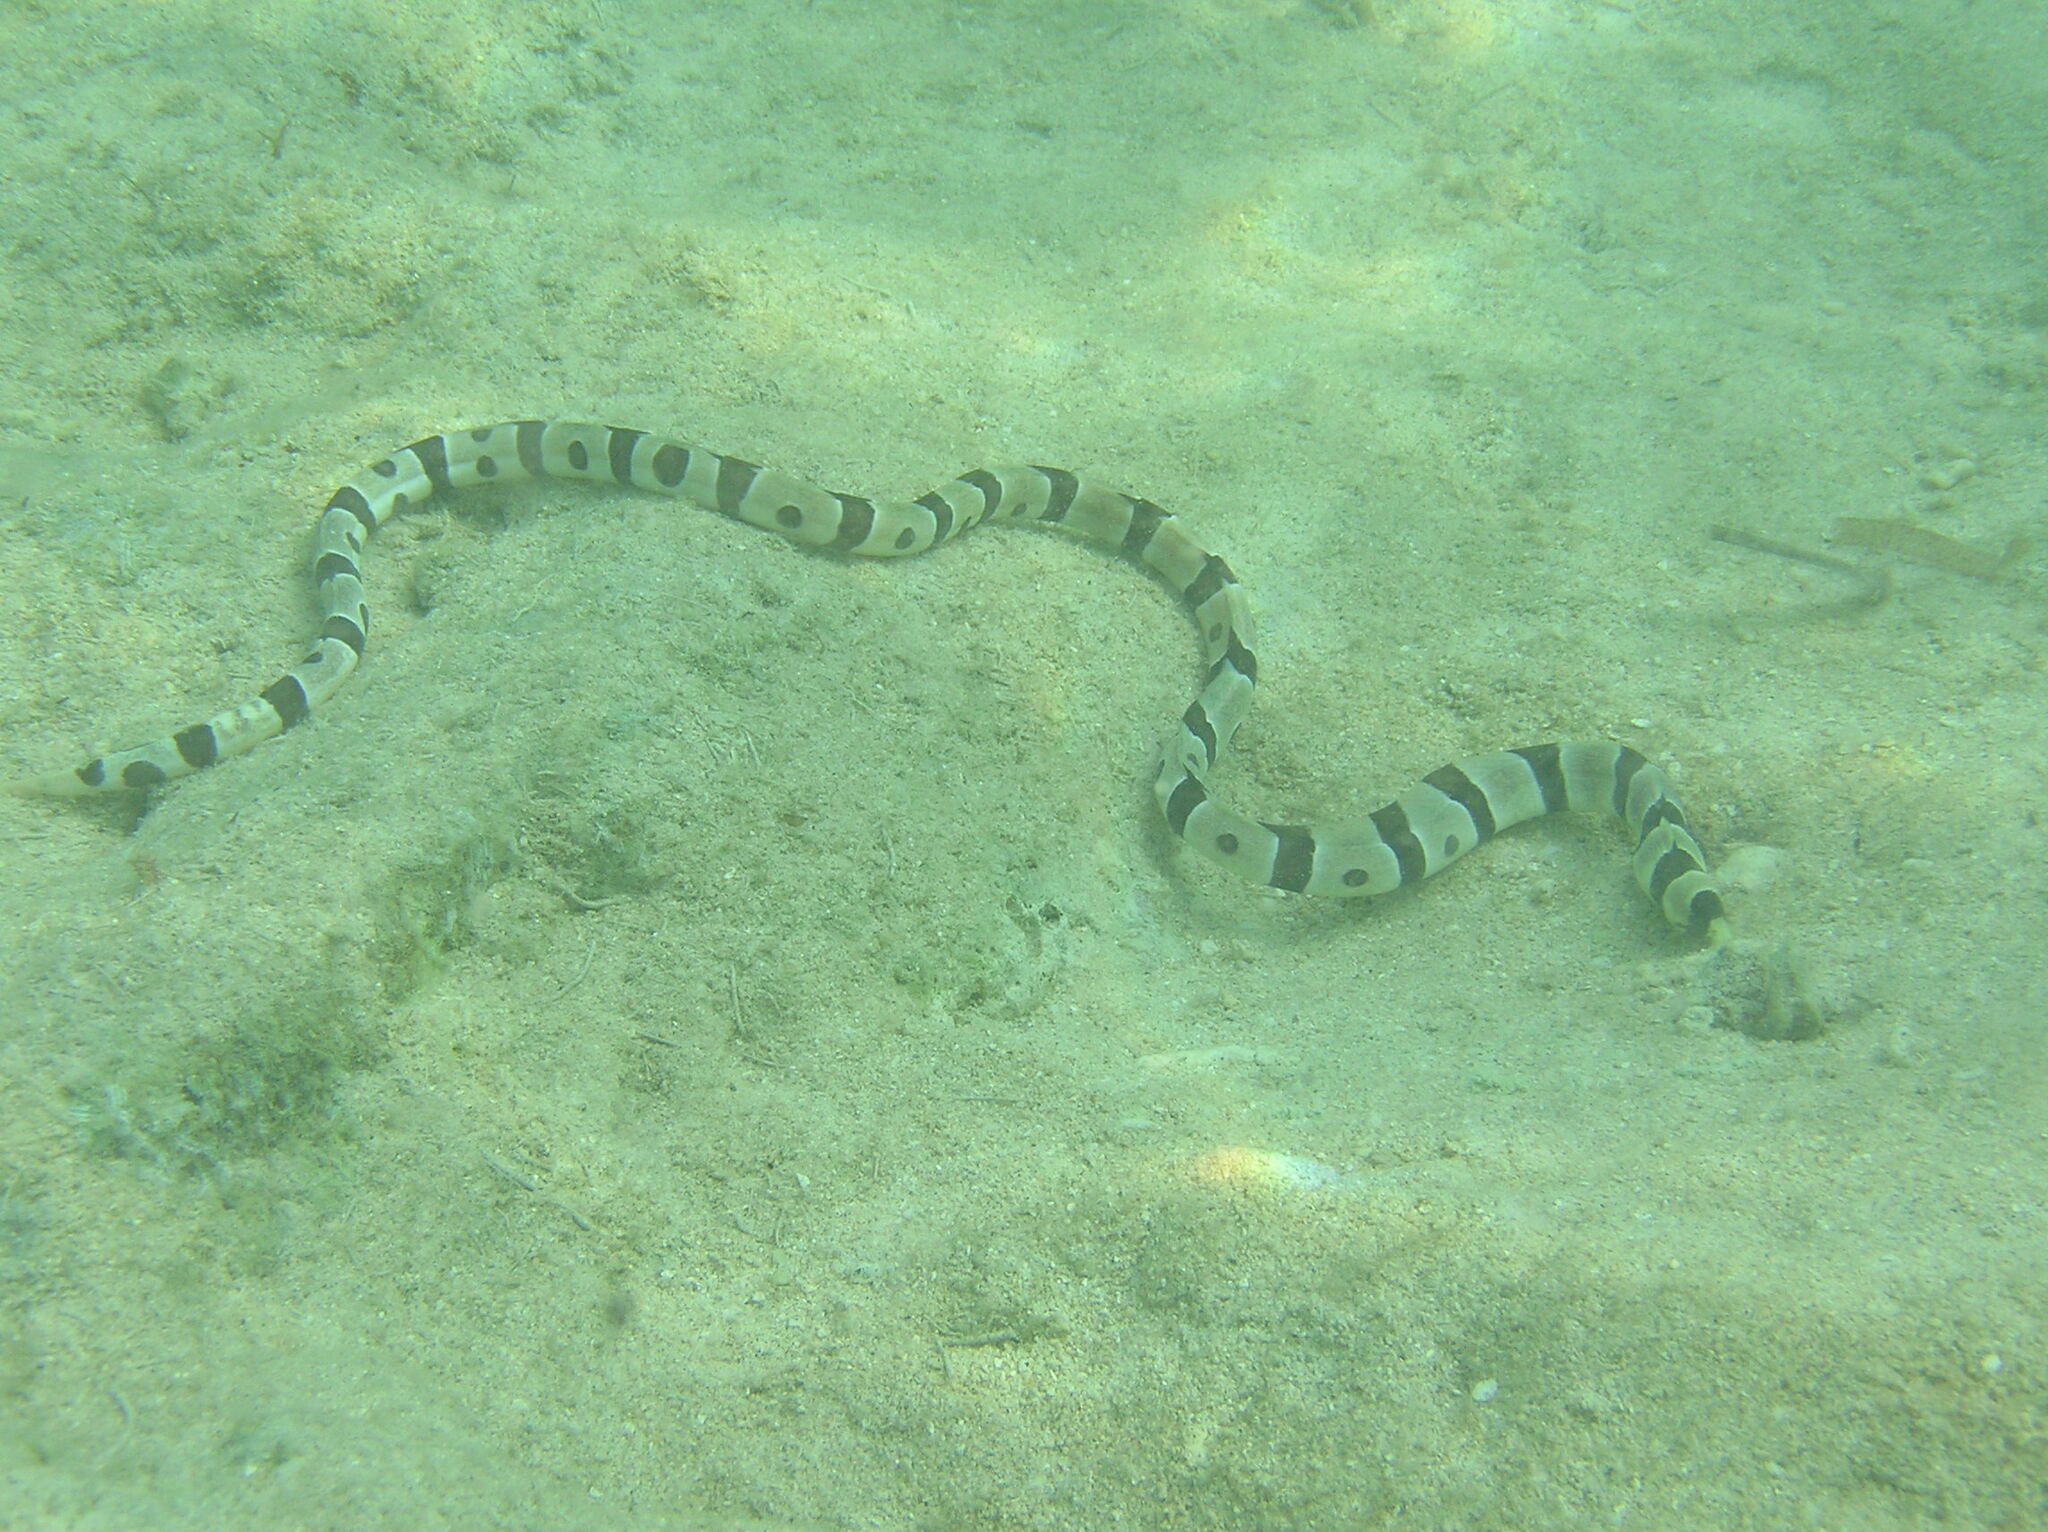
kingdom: Animalia
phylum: Chordata
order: Anguilliformes
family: Ophichthidae
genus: Myrichthys
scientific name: Myrichthys colubrinus
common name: Harlequin snake eel
